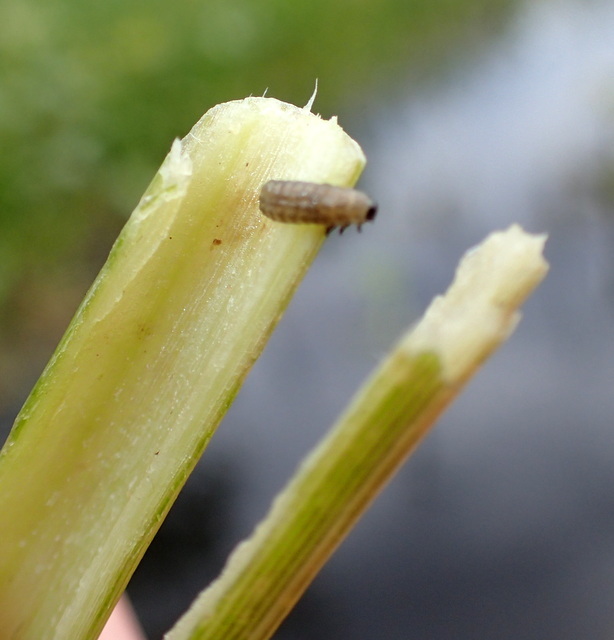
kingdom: Animalia
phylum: Arthropoda
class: Insecta
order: Coleoptera
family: Chrysomelidae
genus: Agasicles
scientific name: Agasicles hygrophila
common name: Alligatorweed flea beetle
